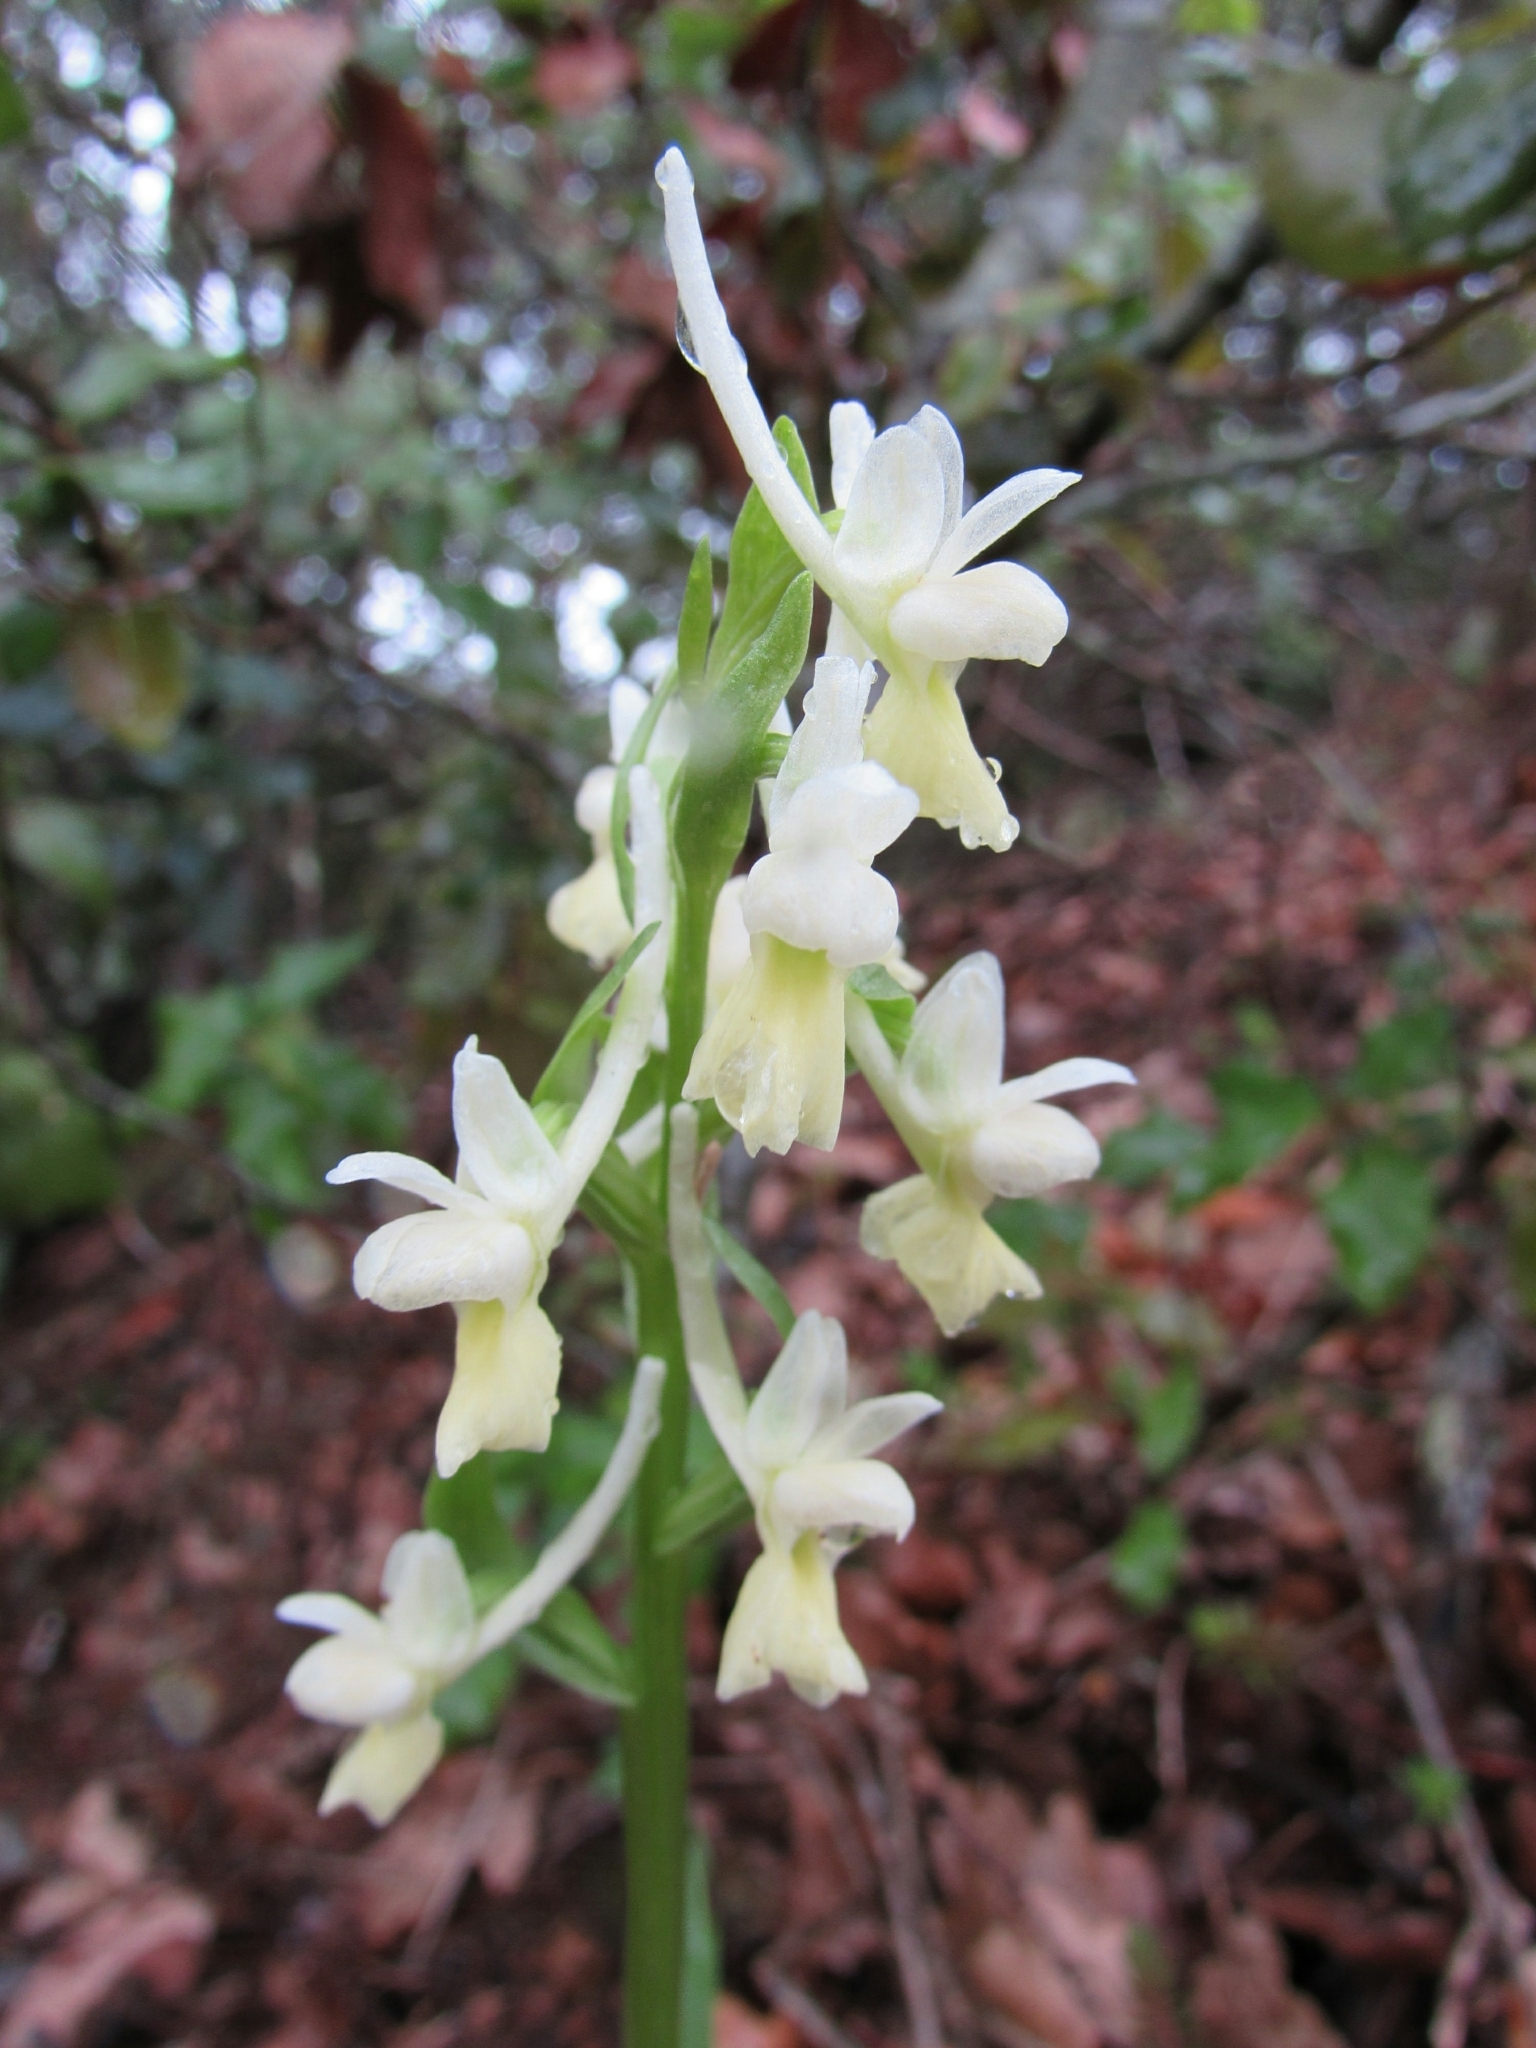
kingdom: Plantae
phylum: Tracheophyta
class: Liliopsida
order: Asparagales
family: Orchidaceae
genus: Dactylorhiza
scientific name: Dactylorhiza romana
